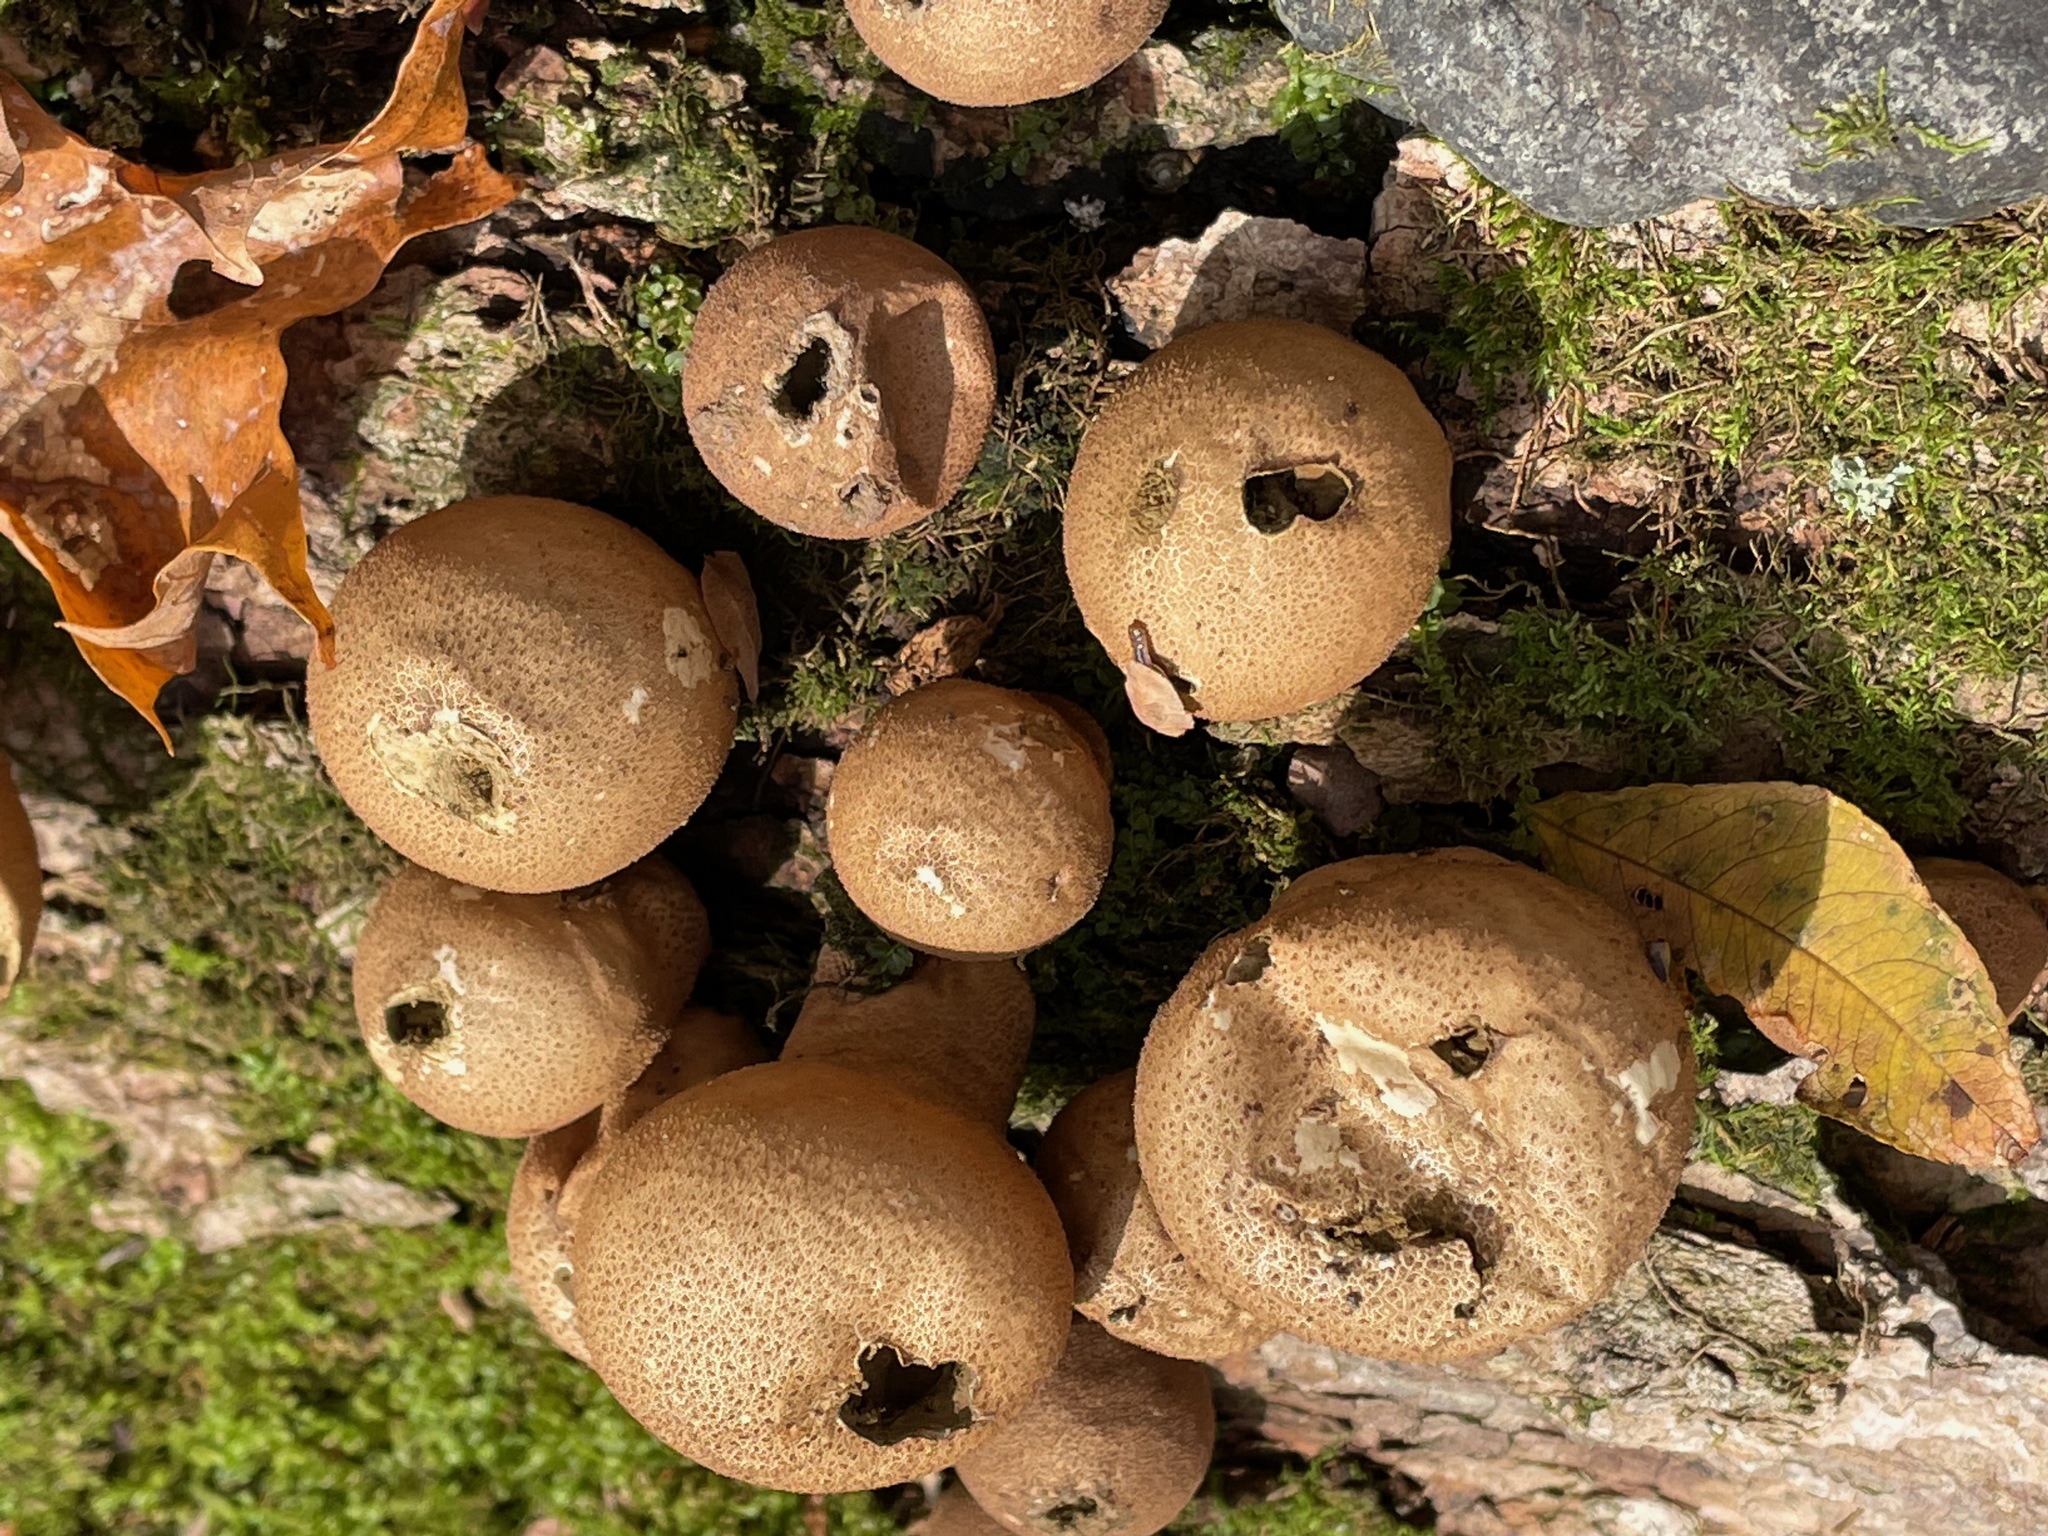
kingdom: Fungi
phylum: Basidiomycota
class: Agaricomycetes
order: Agaricales
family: Lycoperdaceae
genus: Apioperdon
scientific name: Apioperdon pyriforme
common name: Pear-shaped puffball
